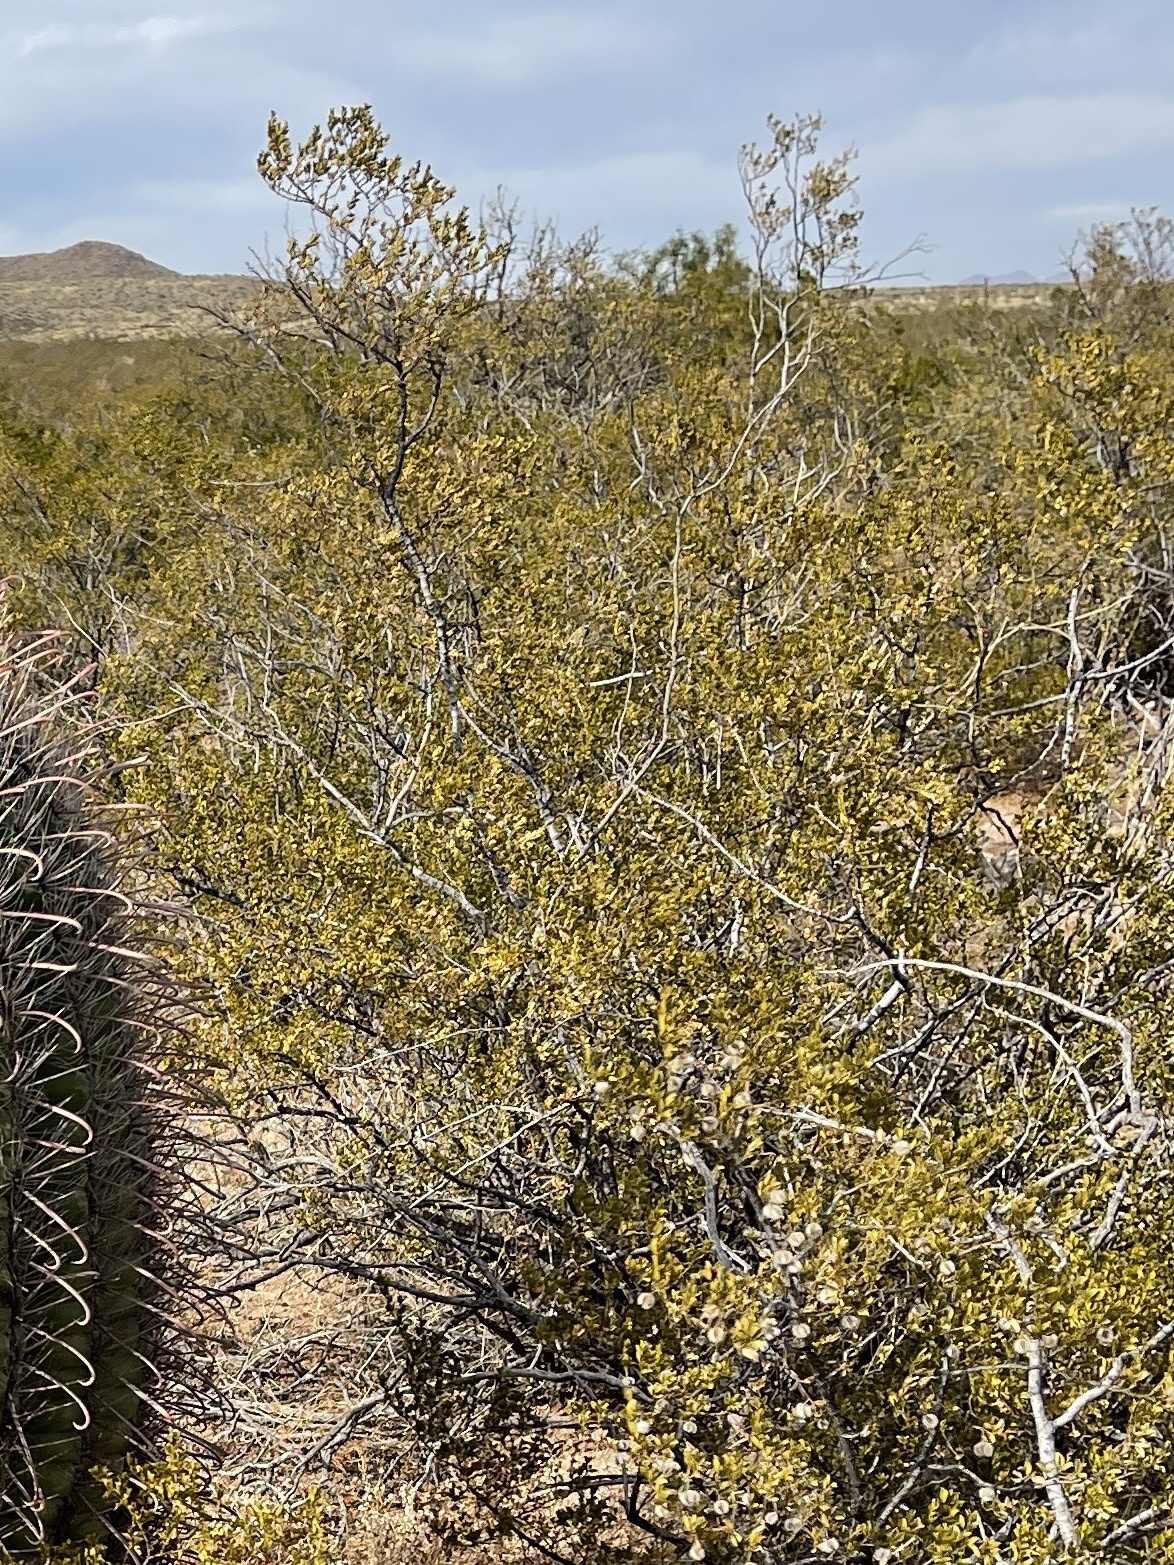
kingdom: Plantae
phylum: Tracheophyta
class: Magnoliopsida
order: Zygophyllales
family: Zygophyllaceae
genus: Larrea
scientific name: Larrea tridentata
